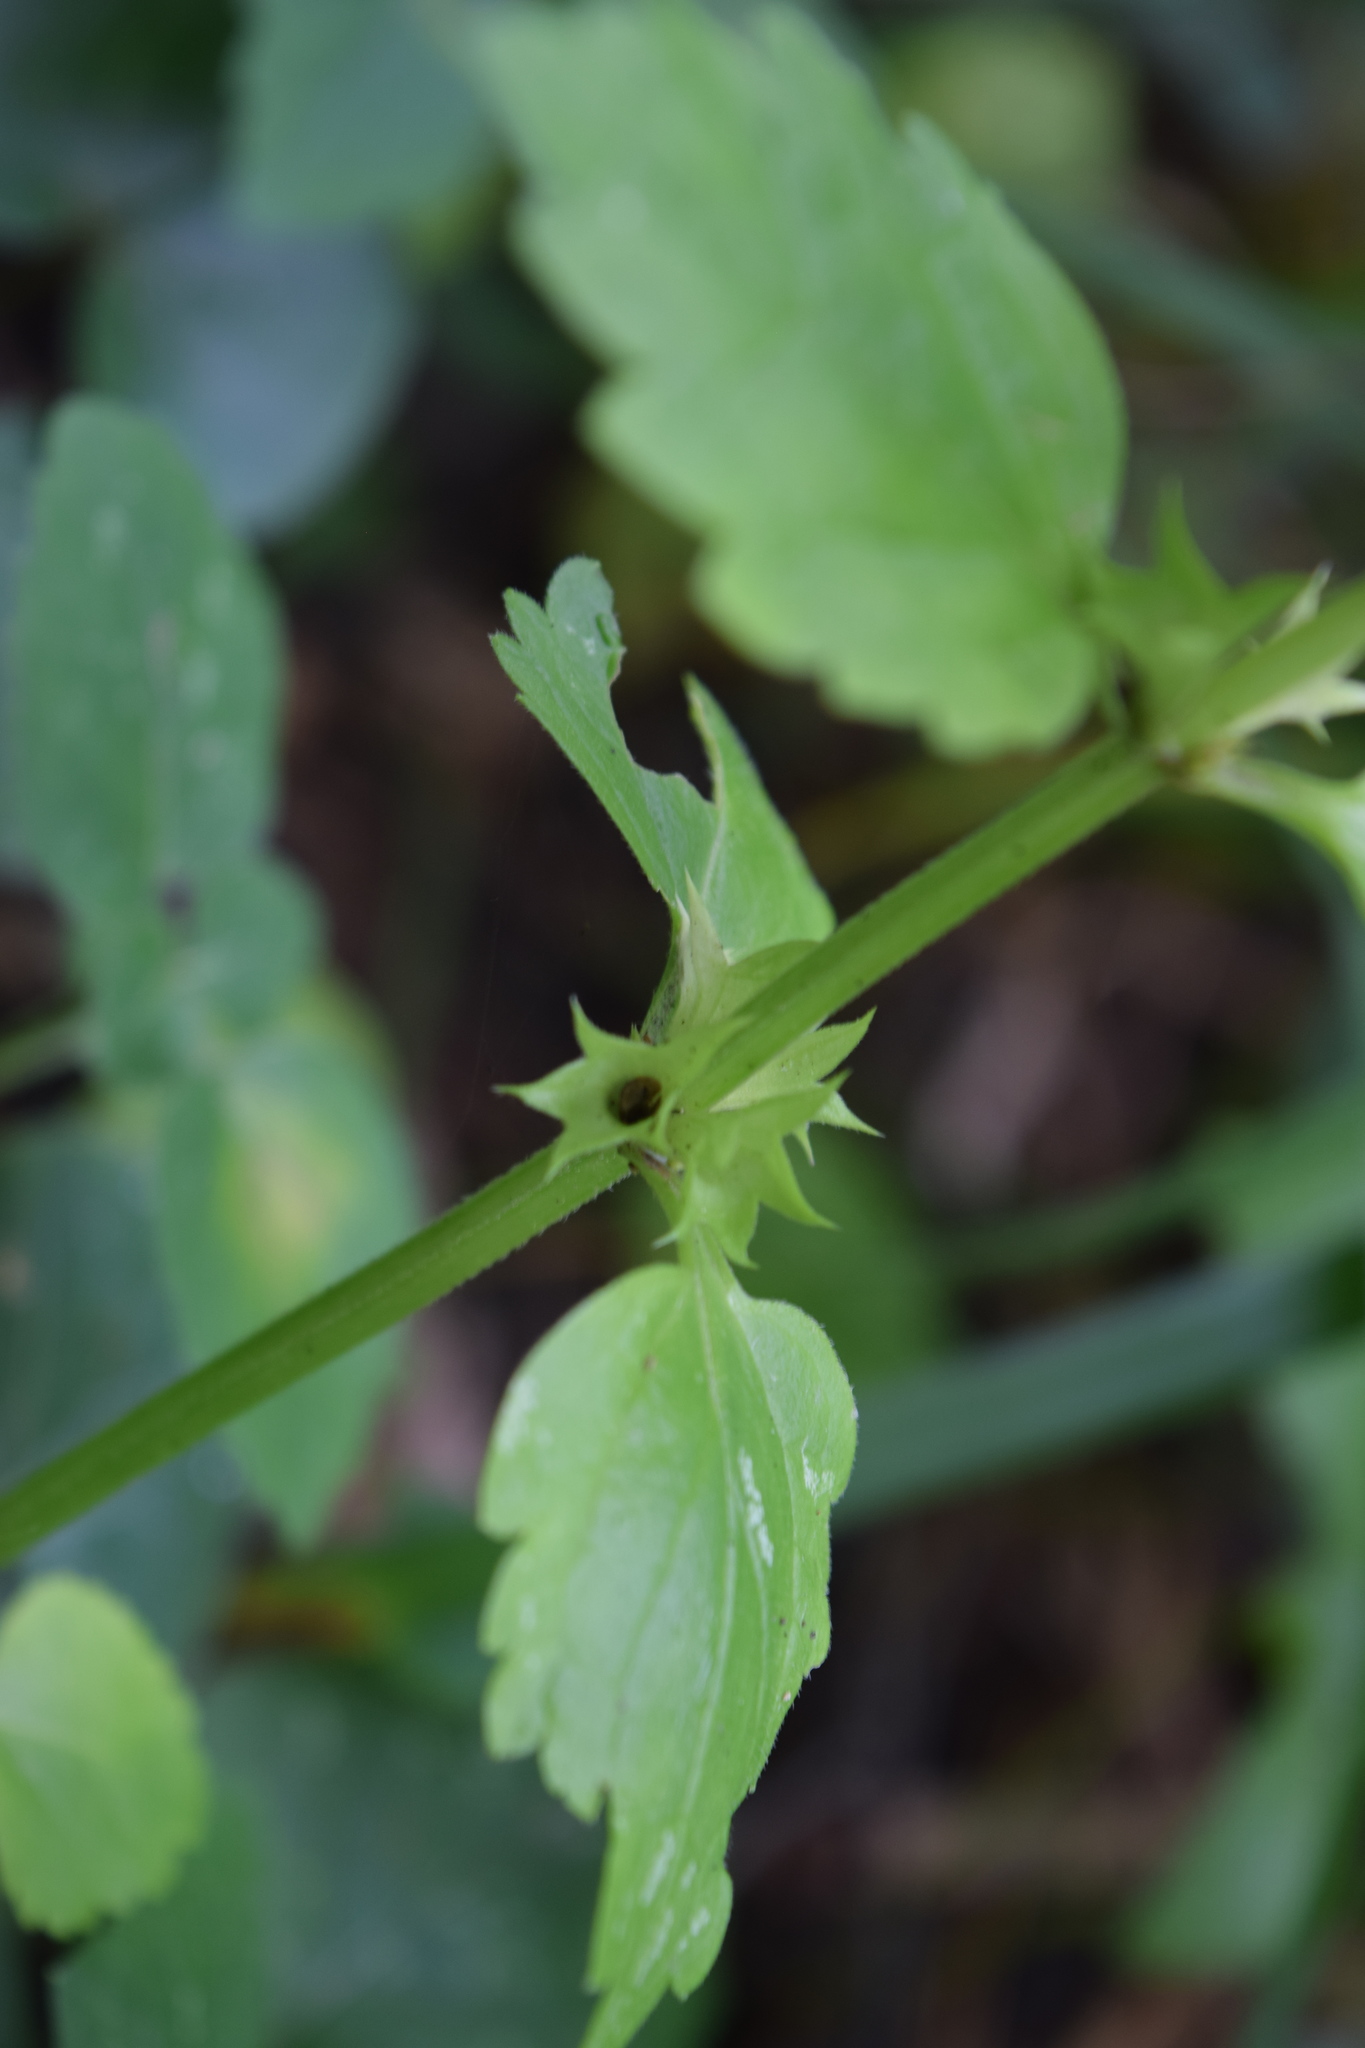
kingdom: Plantae
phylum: Tracheophyta
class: Magnoliopsida
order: Lamiales
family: Lamiaceae
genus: Lamium
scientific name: Lamium galeobdolon
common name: Yellow archangel
